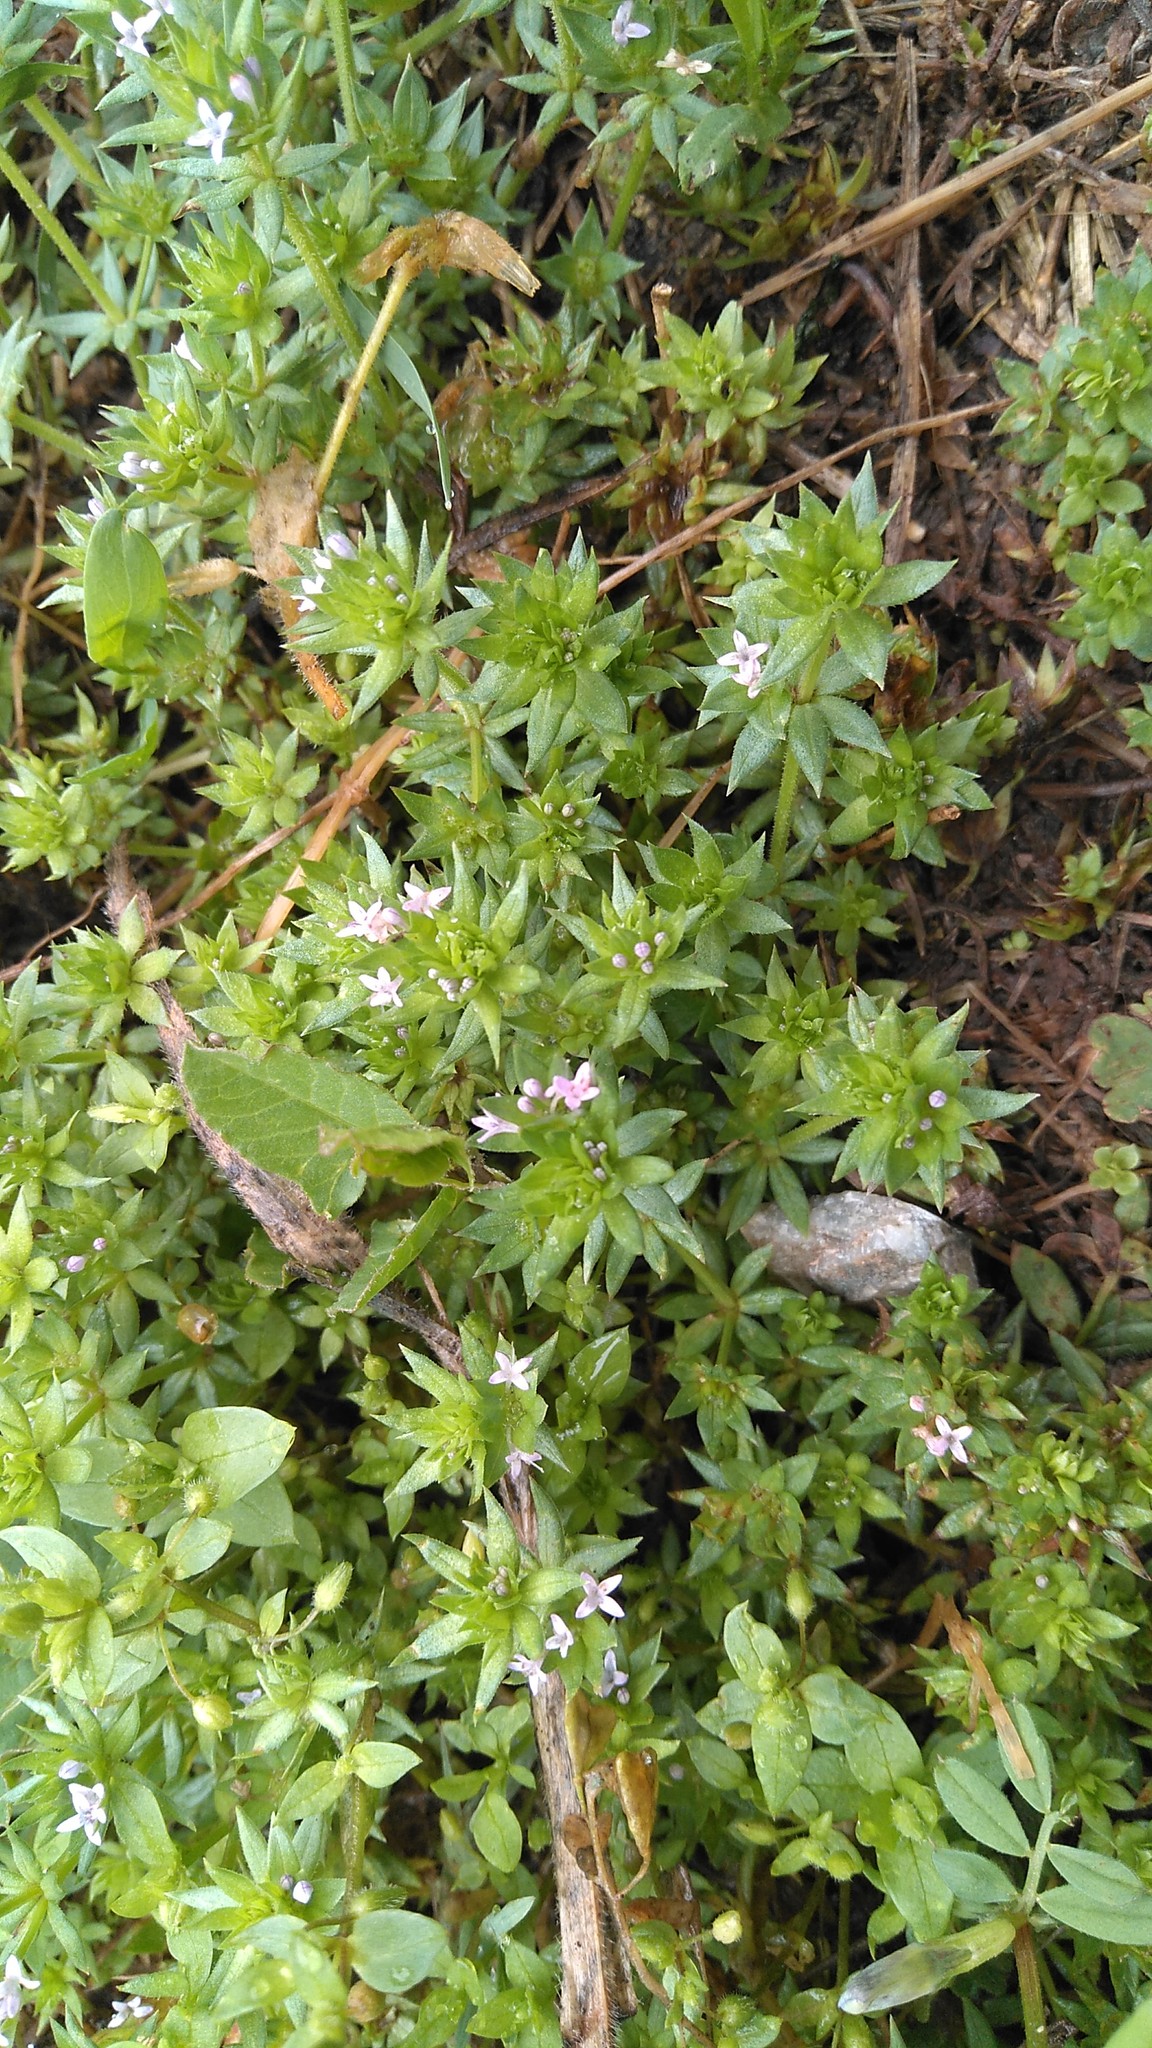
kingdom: Plantae
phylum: Tracheophyta
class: Magnoliopsida
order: Gentianales
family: Rubiaceae
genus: Sherardia
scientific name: Sherardia arvensis
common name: Field madder
